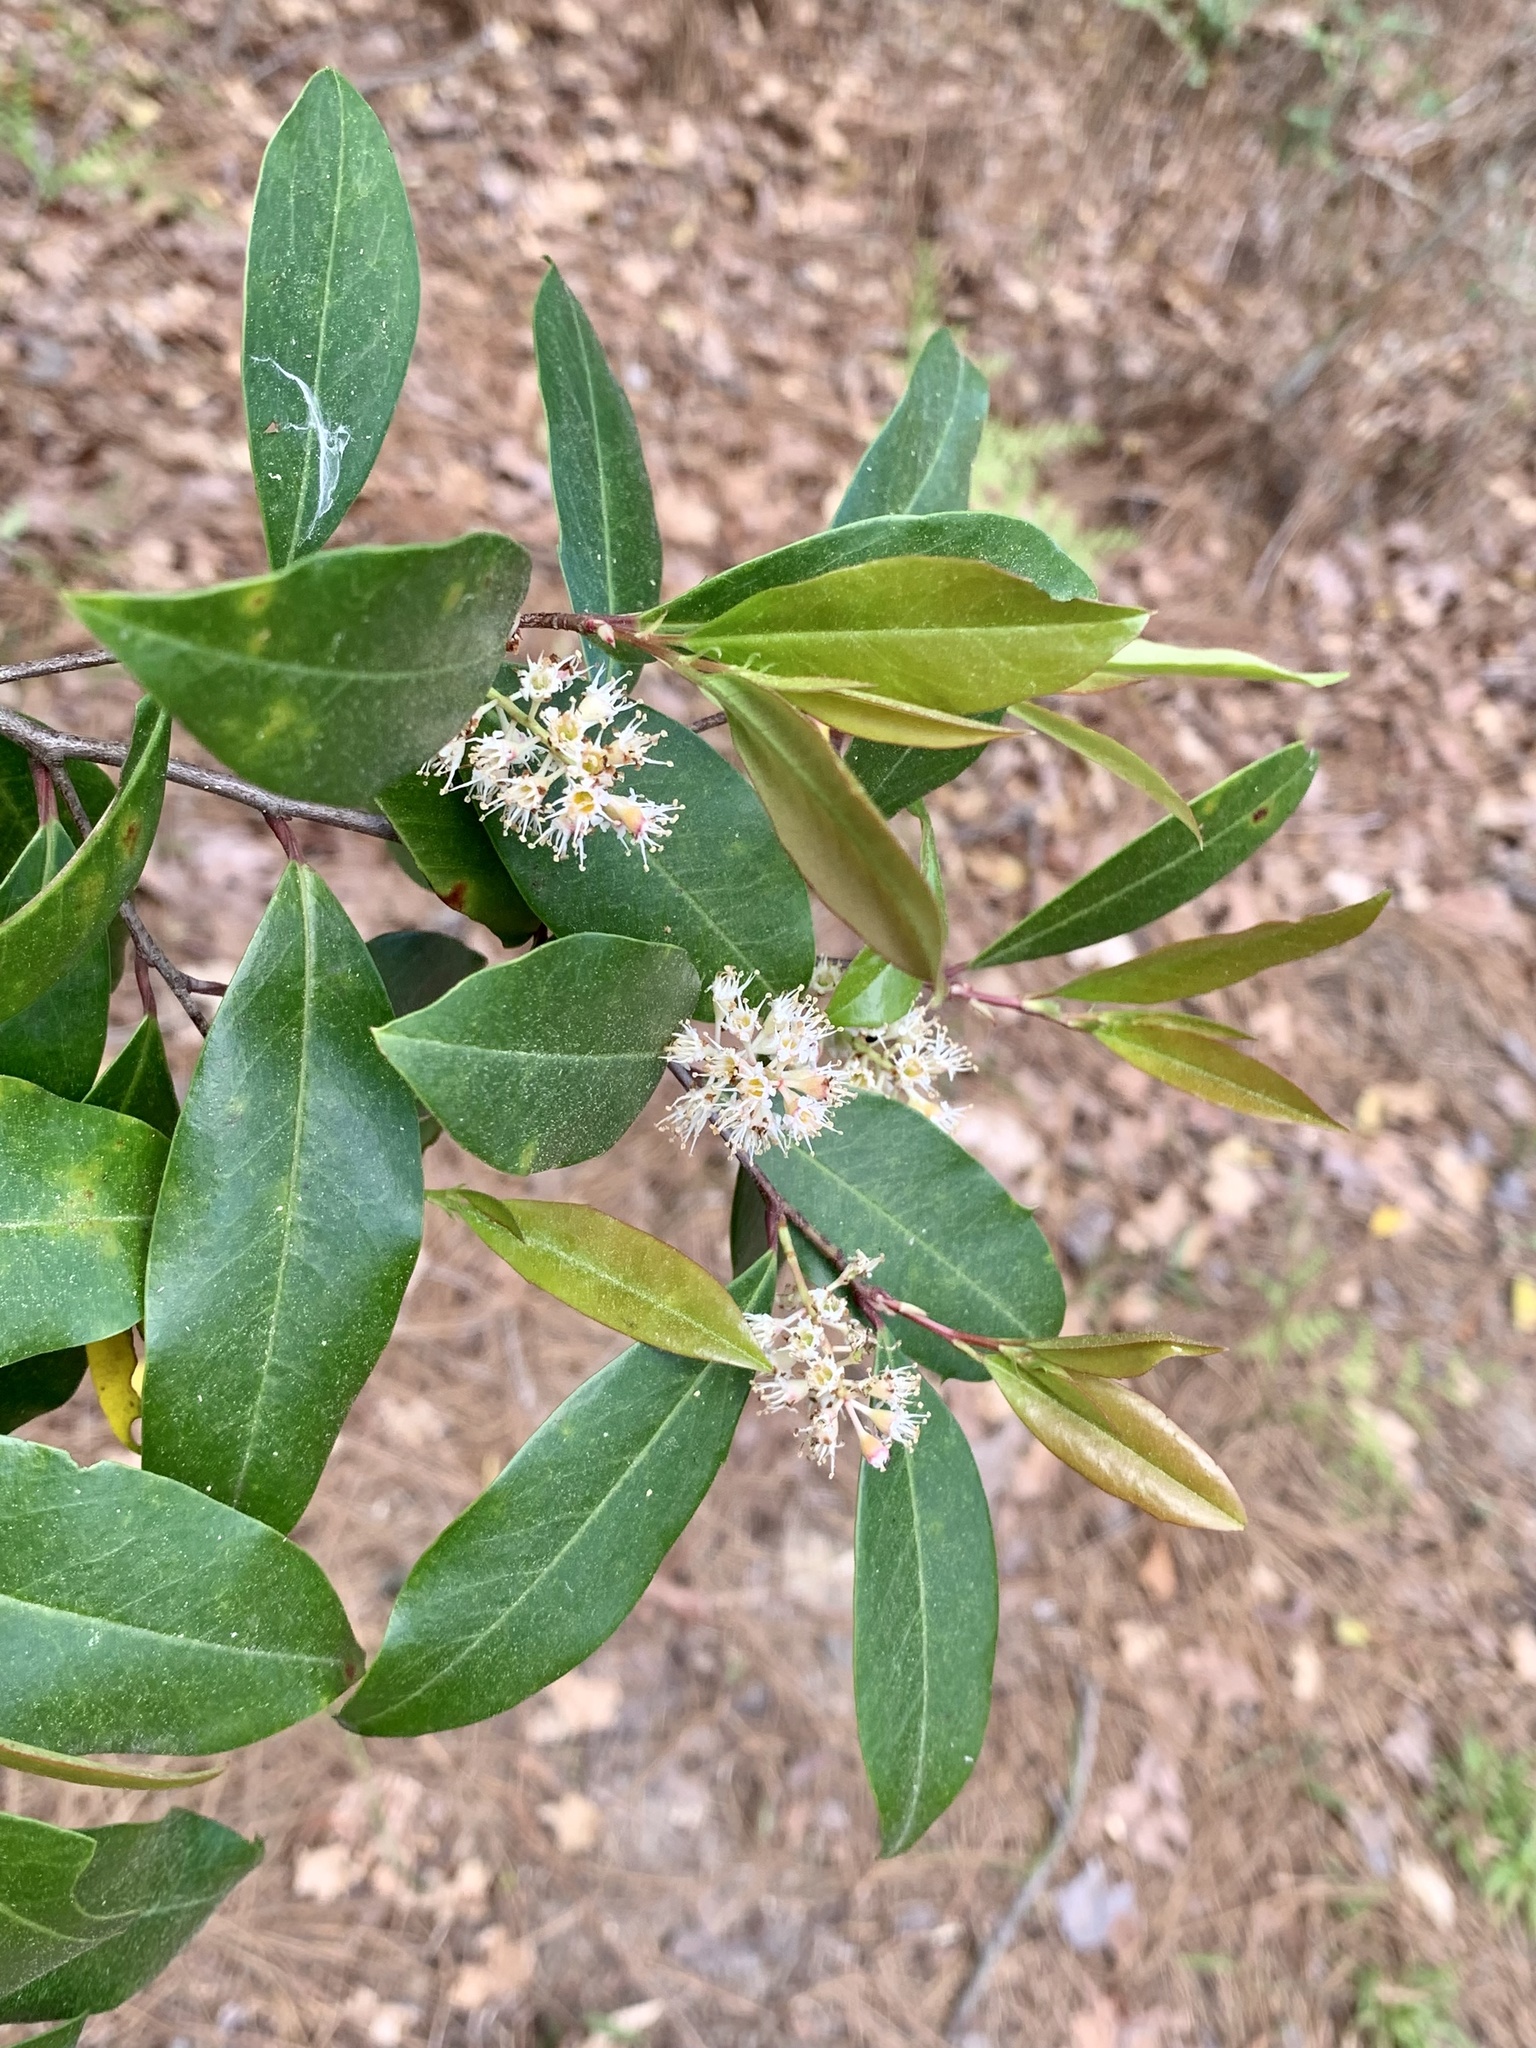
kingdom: Plantae
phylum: Tracheophyta
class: Magnoliopsida
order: Rosales
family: Rosaceae
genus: Prunus
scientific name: Prunus caroliniana
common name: Carolina laurel cherry
